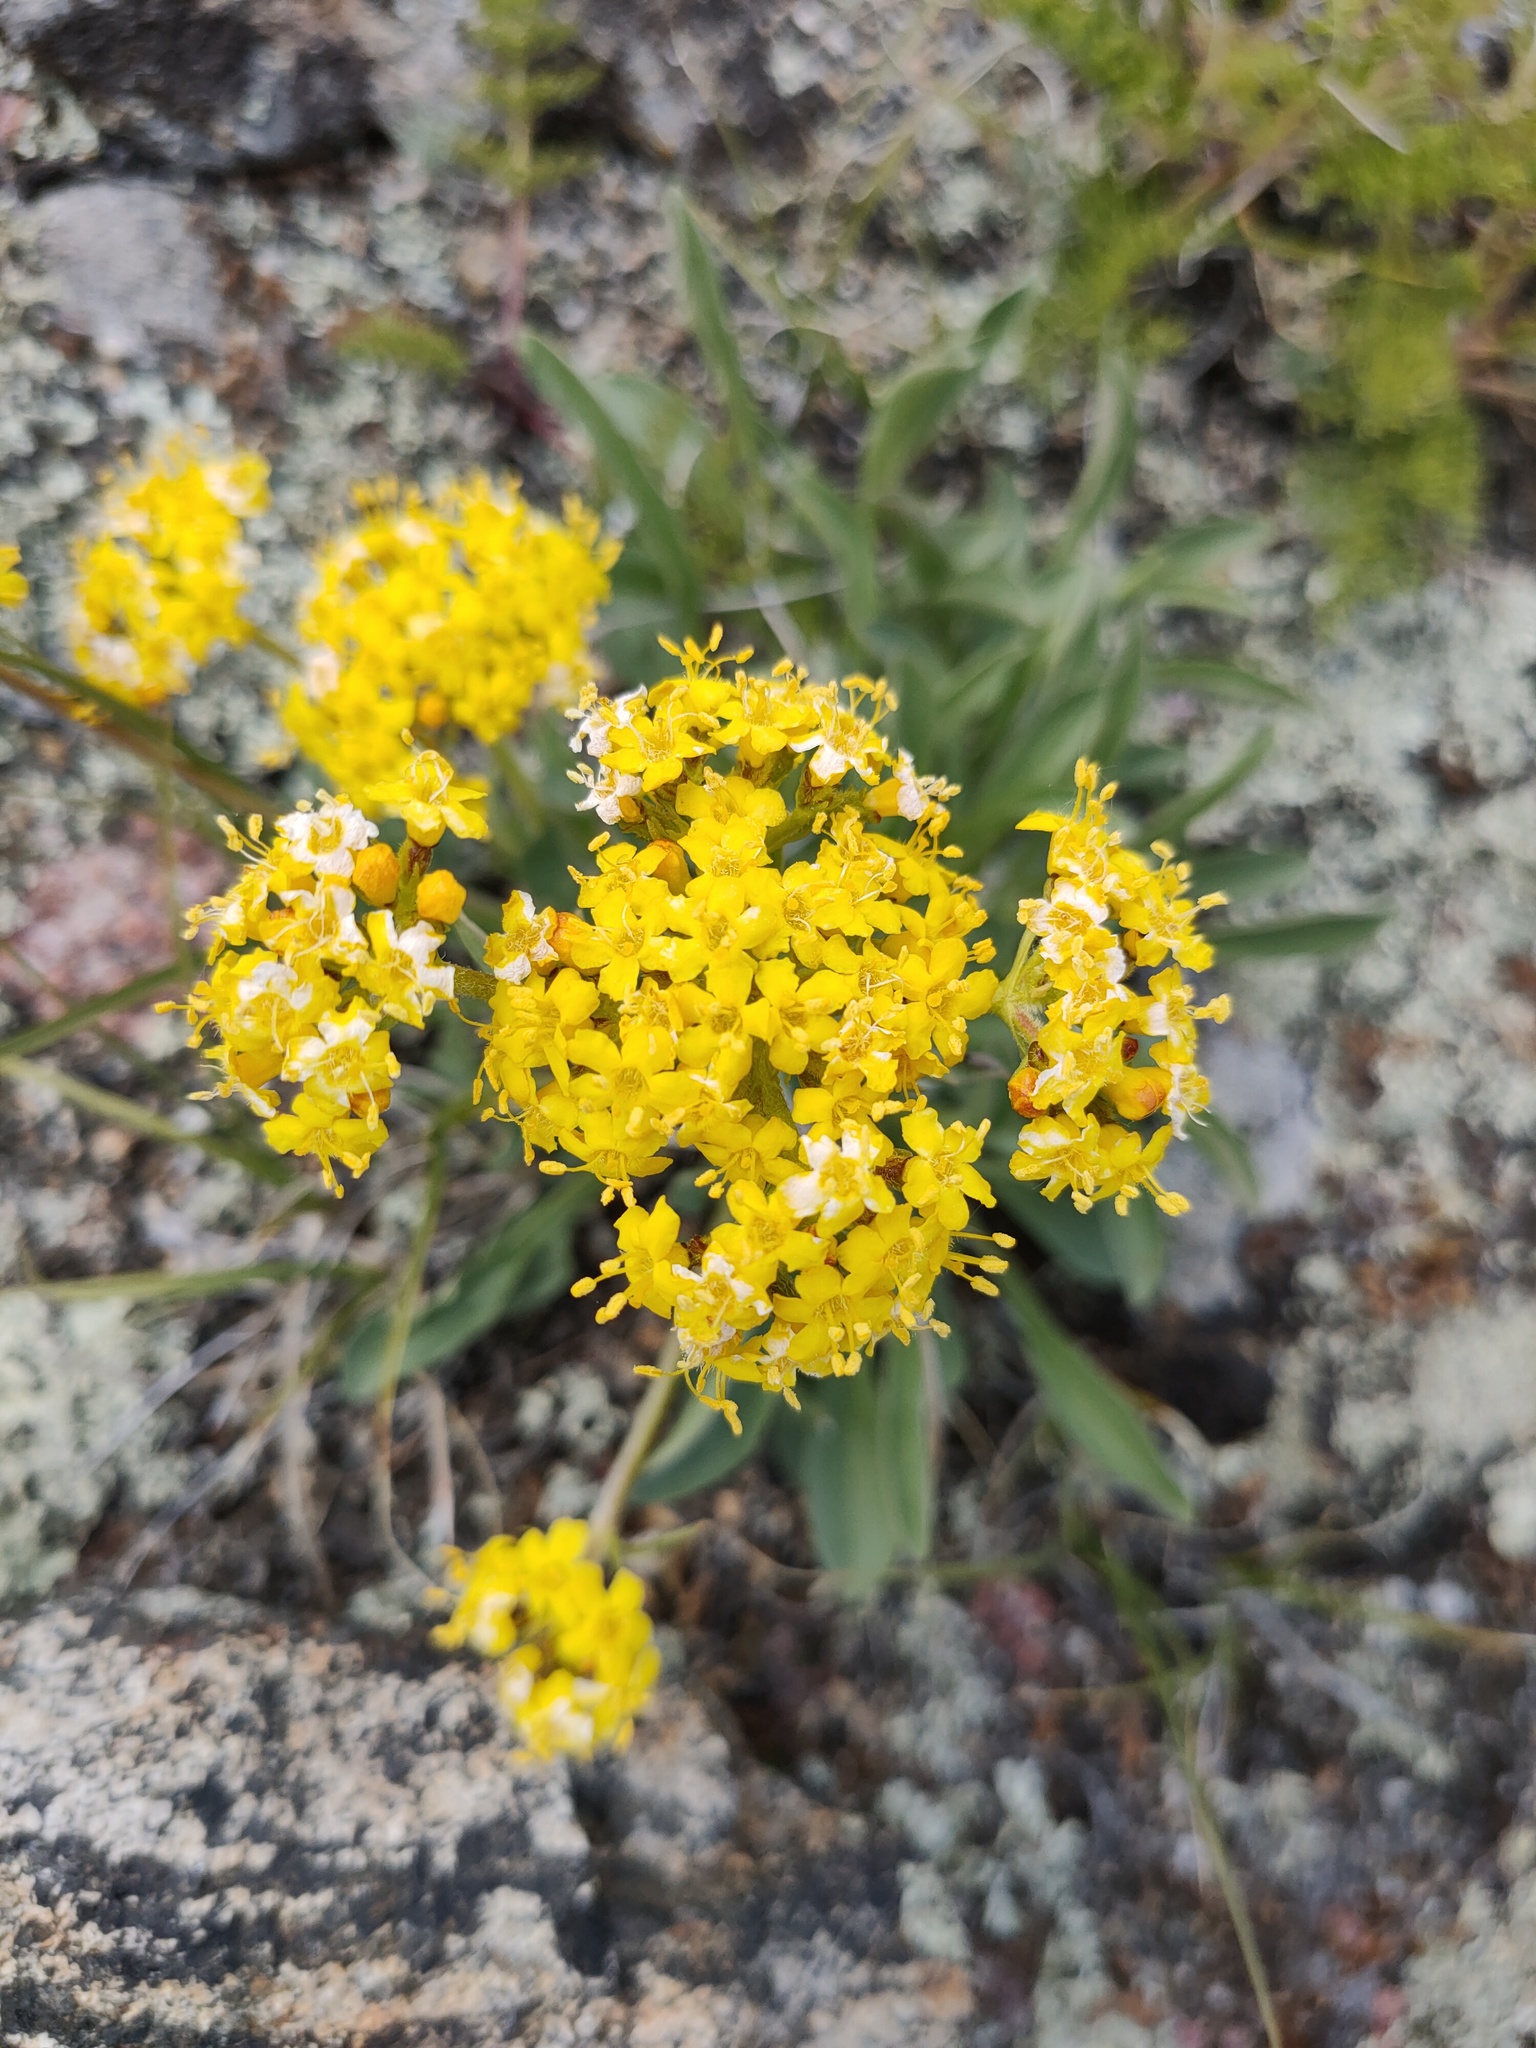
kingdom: Plantae
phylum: Tracheophyta
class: Magnoliopsida
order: Dipsacales
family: Caprifoliaceae
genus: Patrinia
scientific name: Patrinia sibirica
